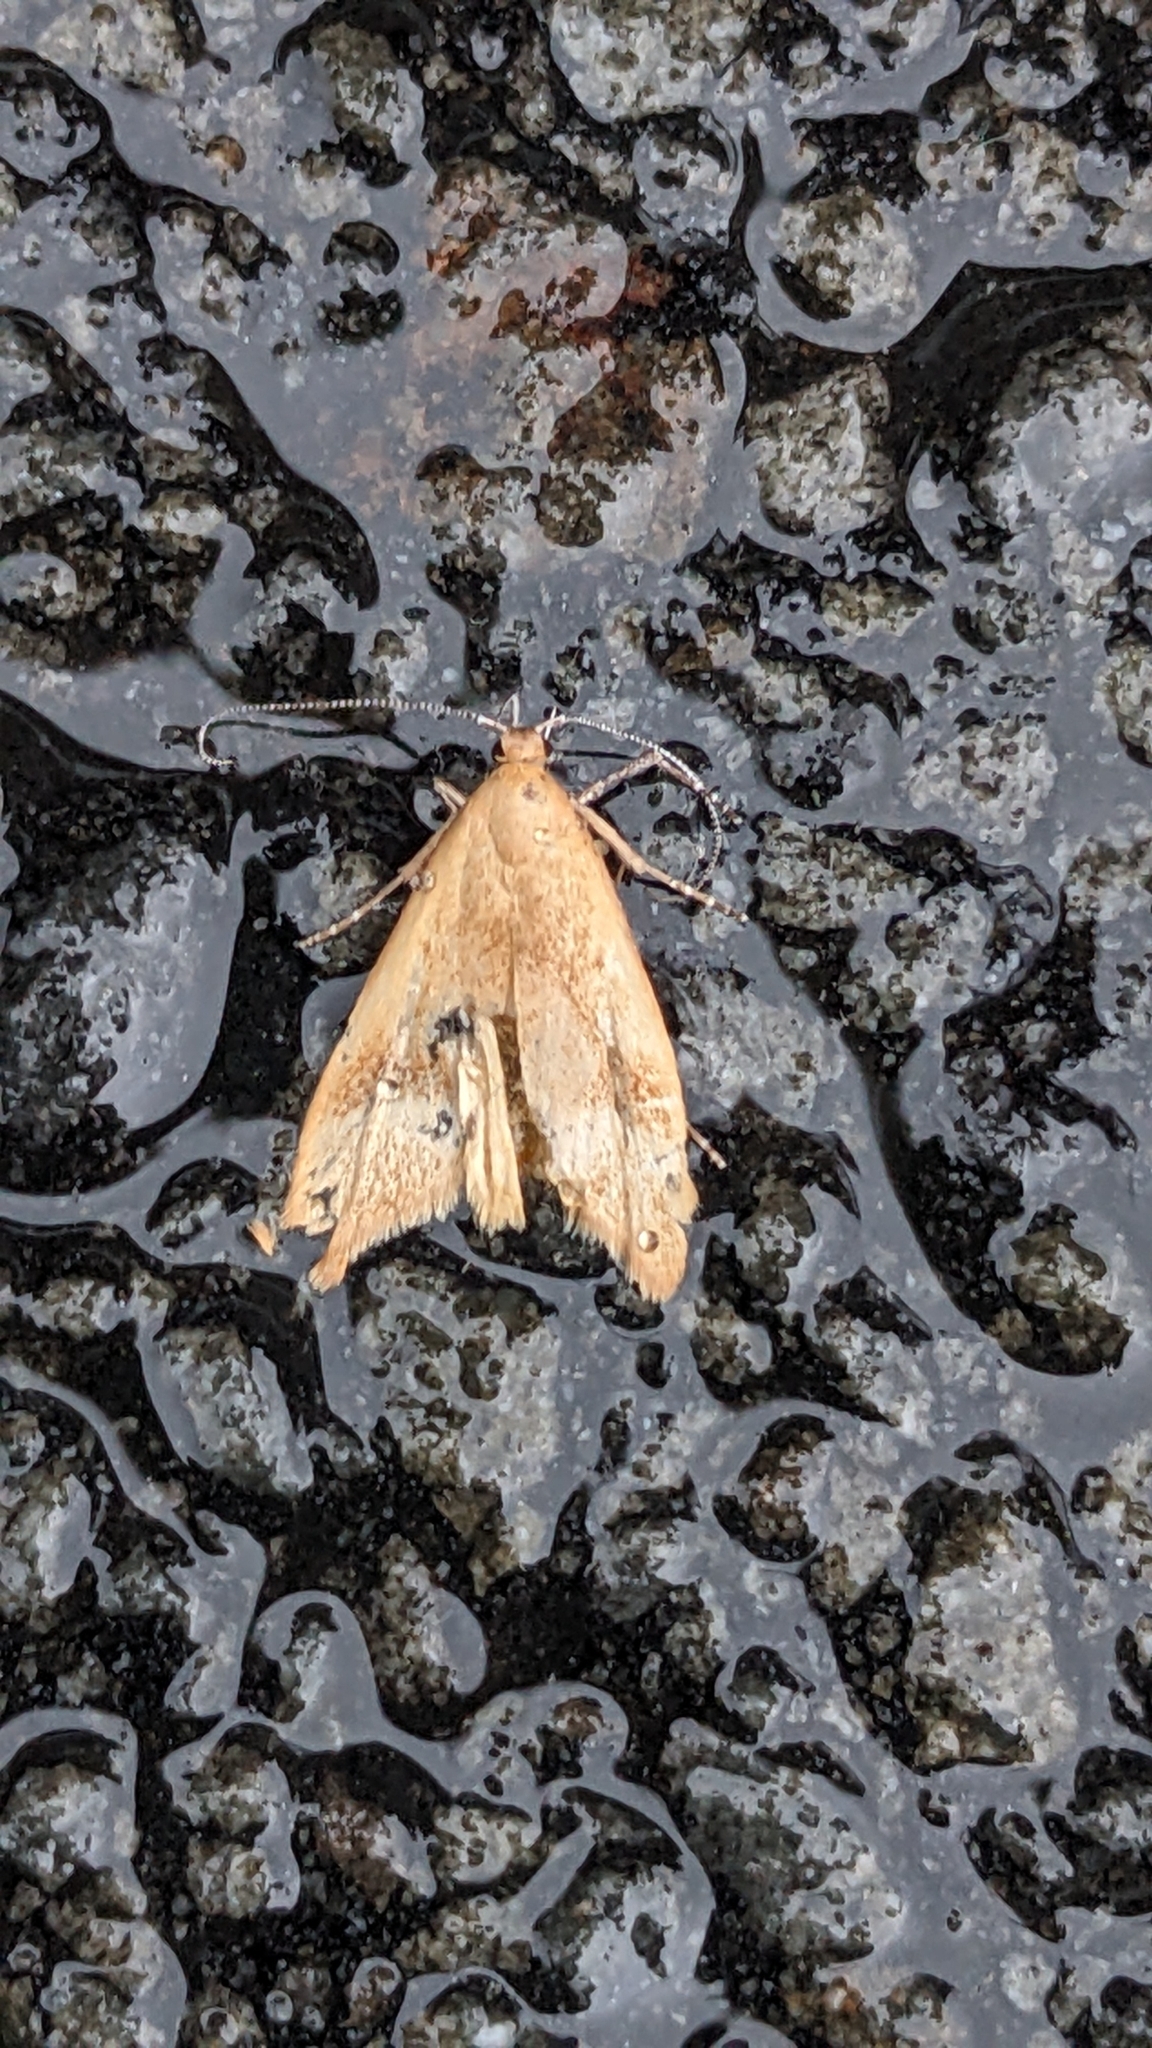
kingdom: Animalia
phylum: Arthropoda
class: Insecta
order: Lepidoptera
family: Oecophoridae
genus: Gymnobathra
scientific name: Gymnobathra hyetodes
